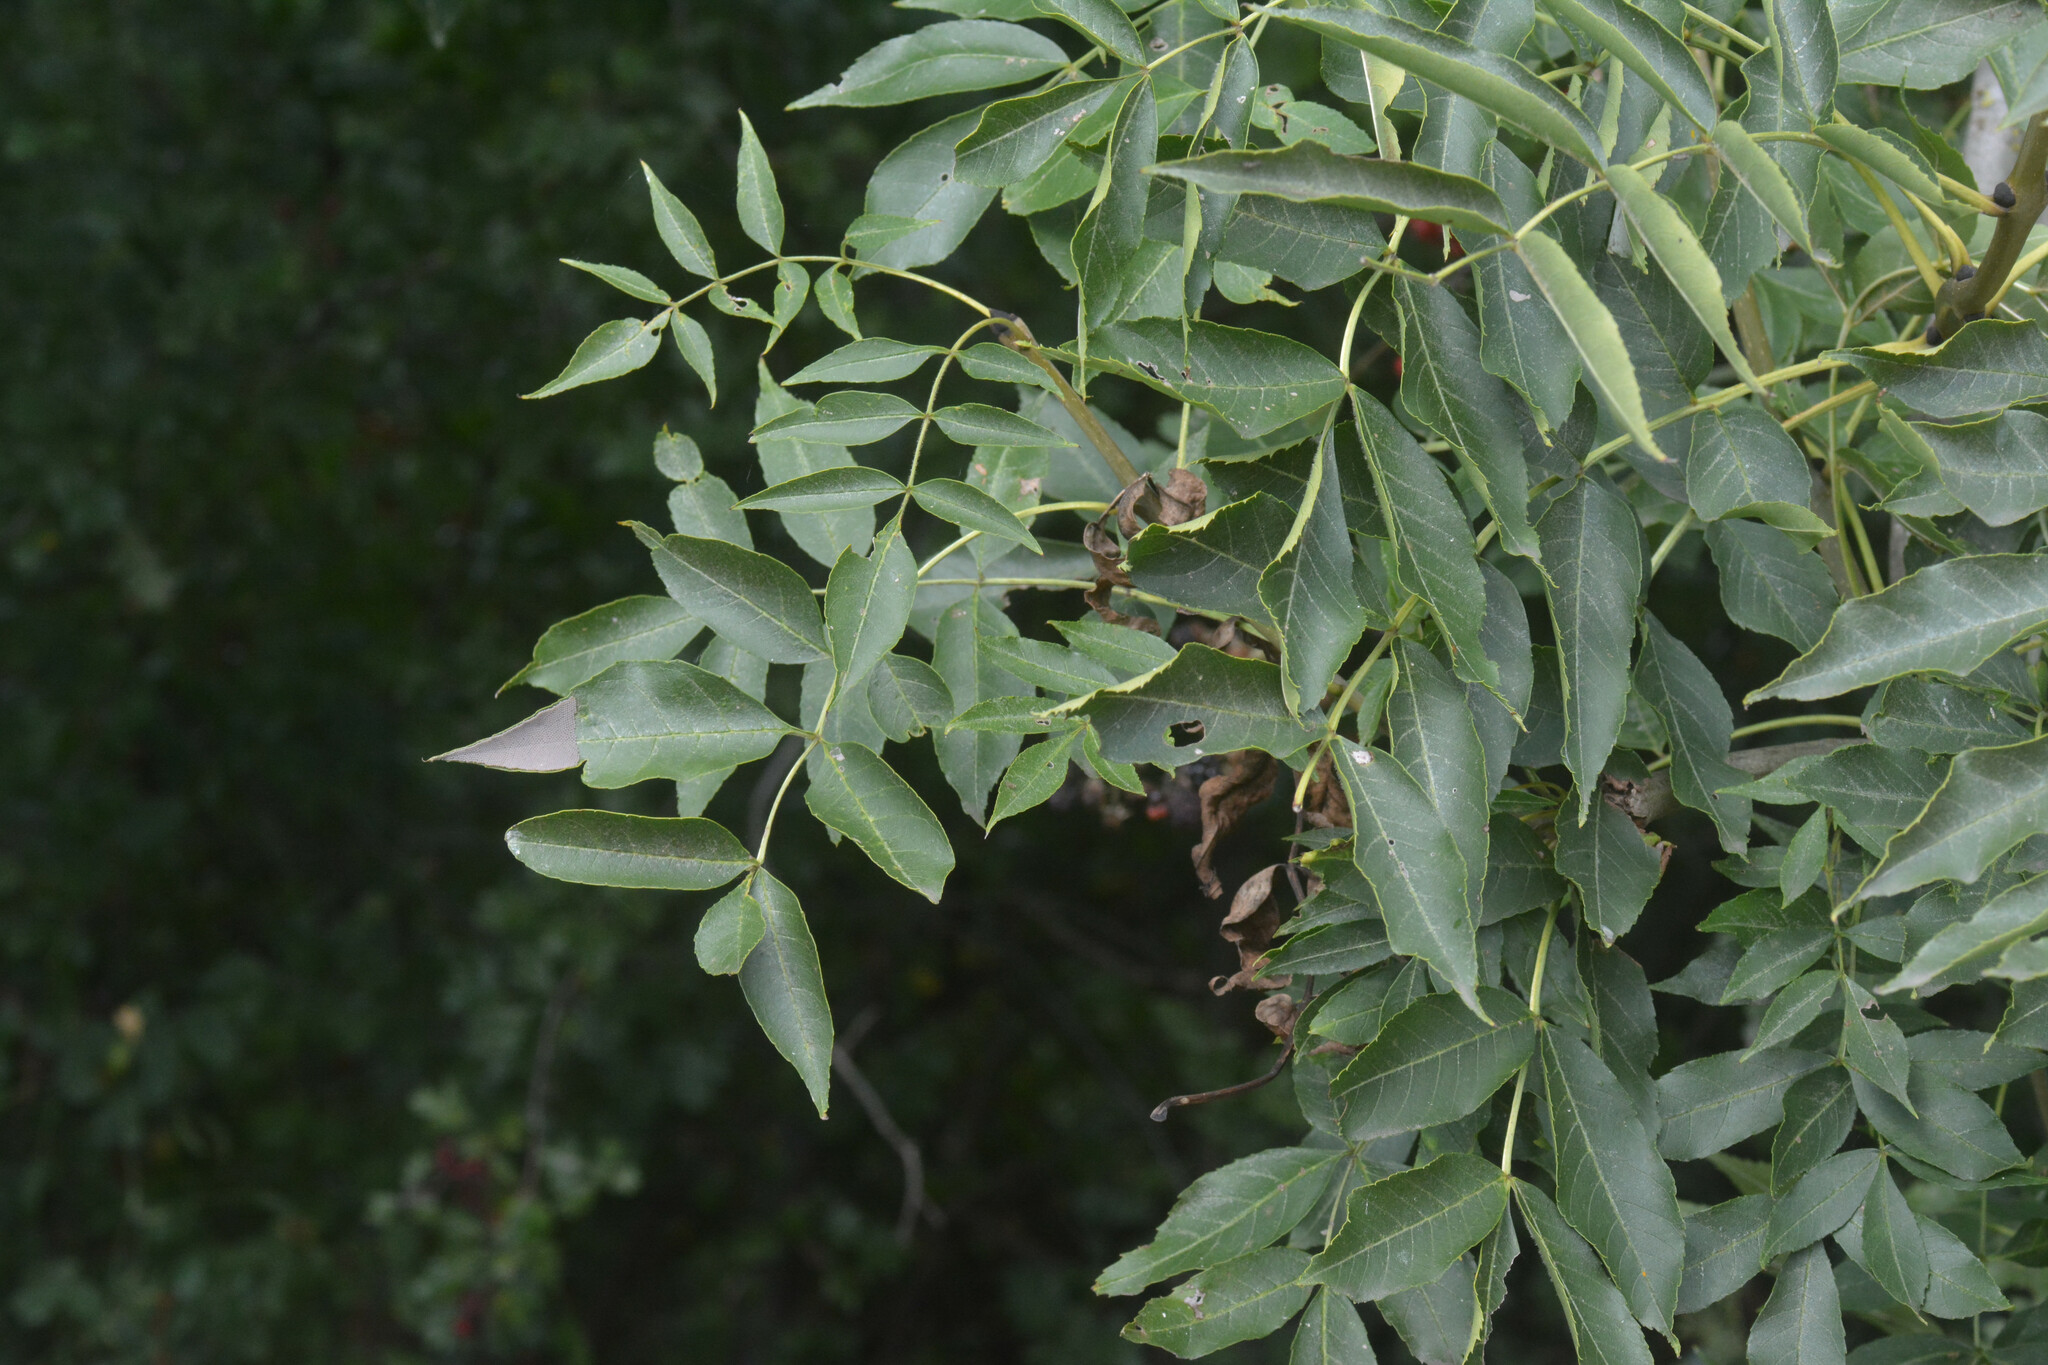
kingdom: Plantae
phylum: Tracheophyta
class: Magnoliopsida
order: Lamiales
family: Oleaceae
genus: Fraxinus
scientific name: Fraxinus excelsior
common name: European ash
